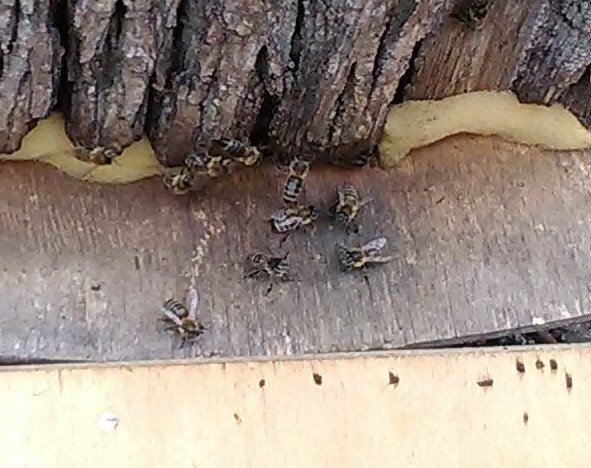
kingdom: Animalia
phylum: Arthropoda
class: Insecta
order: Hymenoptera
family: Apidae
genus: Apis
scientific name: Apis mellifera
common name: Honey bee
